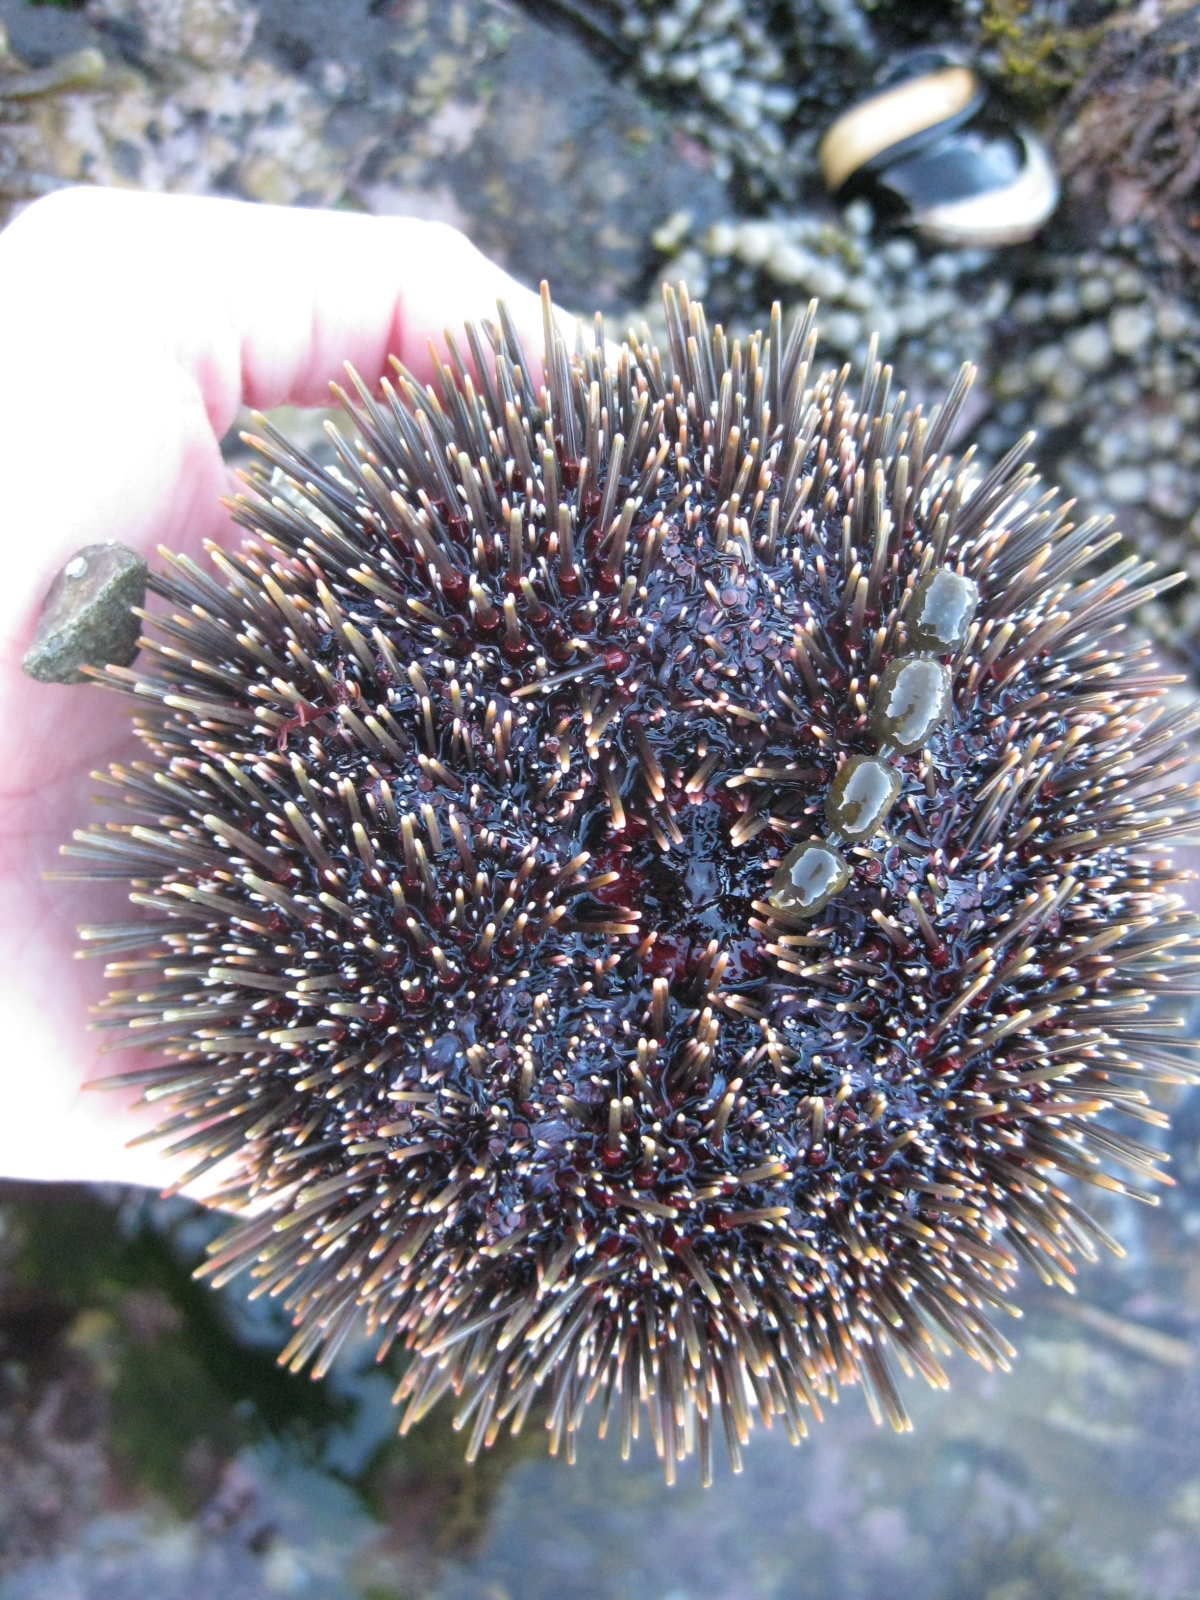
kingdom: Animalia
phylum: Echinodermata
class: Echinoidea
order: Camarodonta
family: Echinometridae
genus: Evechinus
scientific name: Evechinus chloroticus
